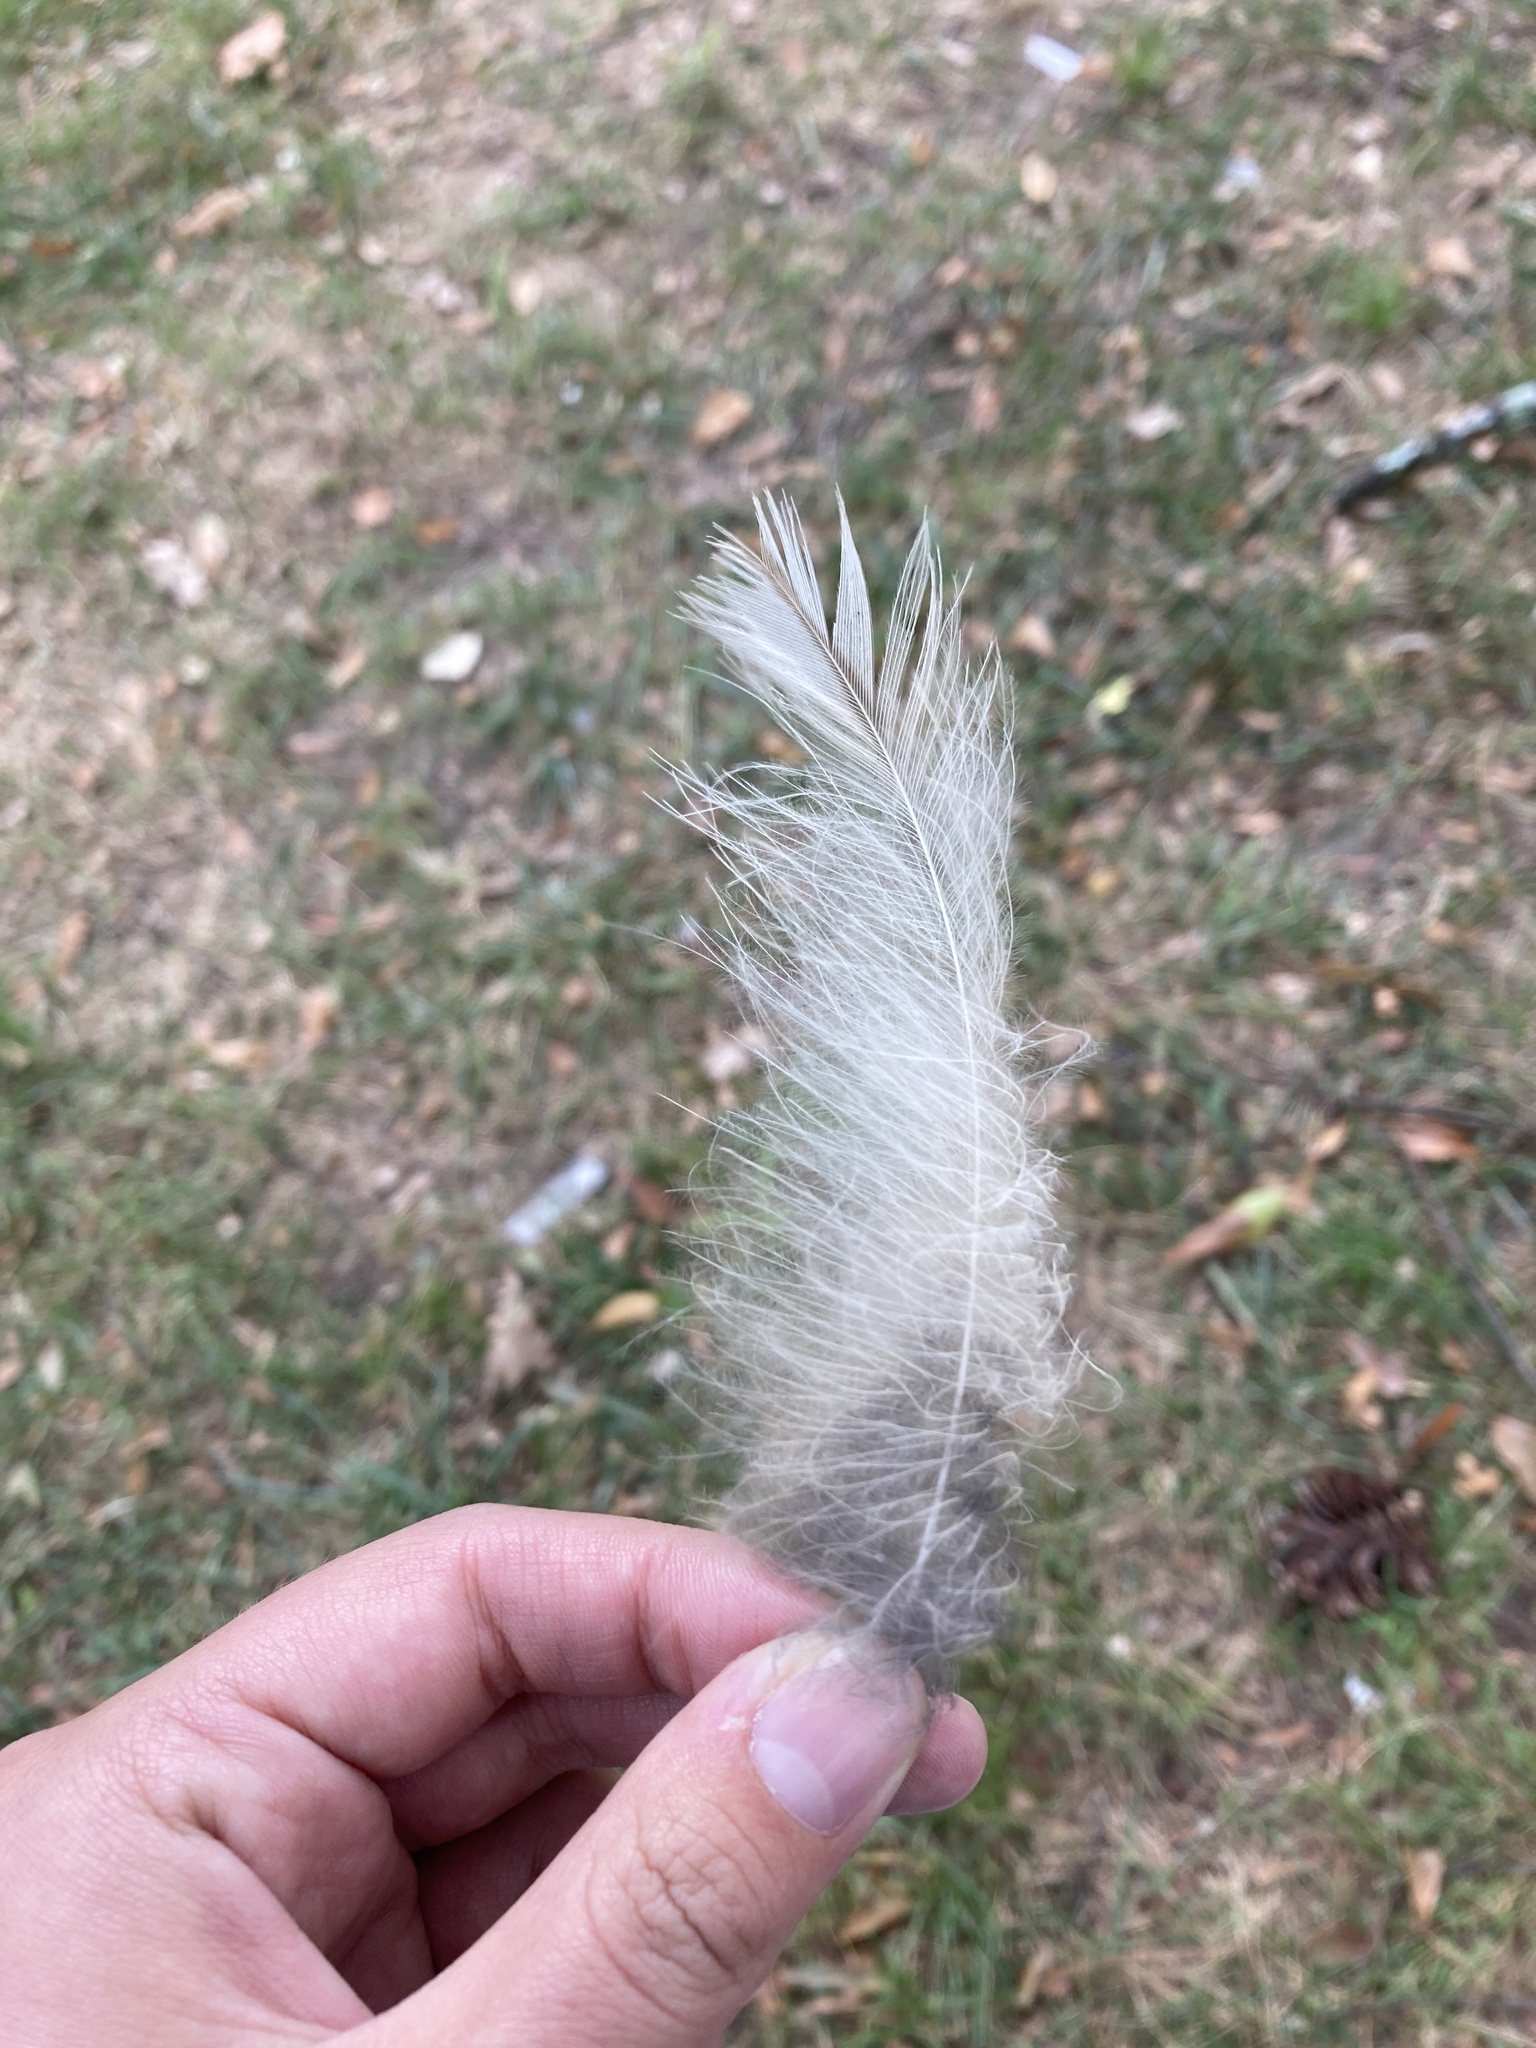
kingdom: Animalia
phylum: Chordata
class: Aves
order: Strigiformes
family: Strigidae
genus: Strix
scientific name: Strix varia
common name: Barred owl
